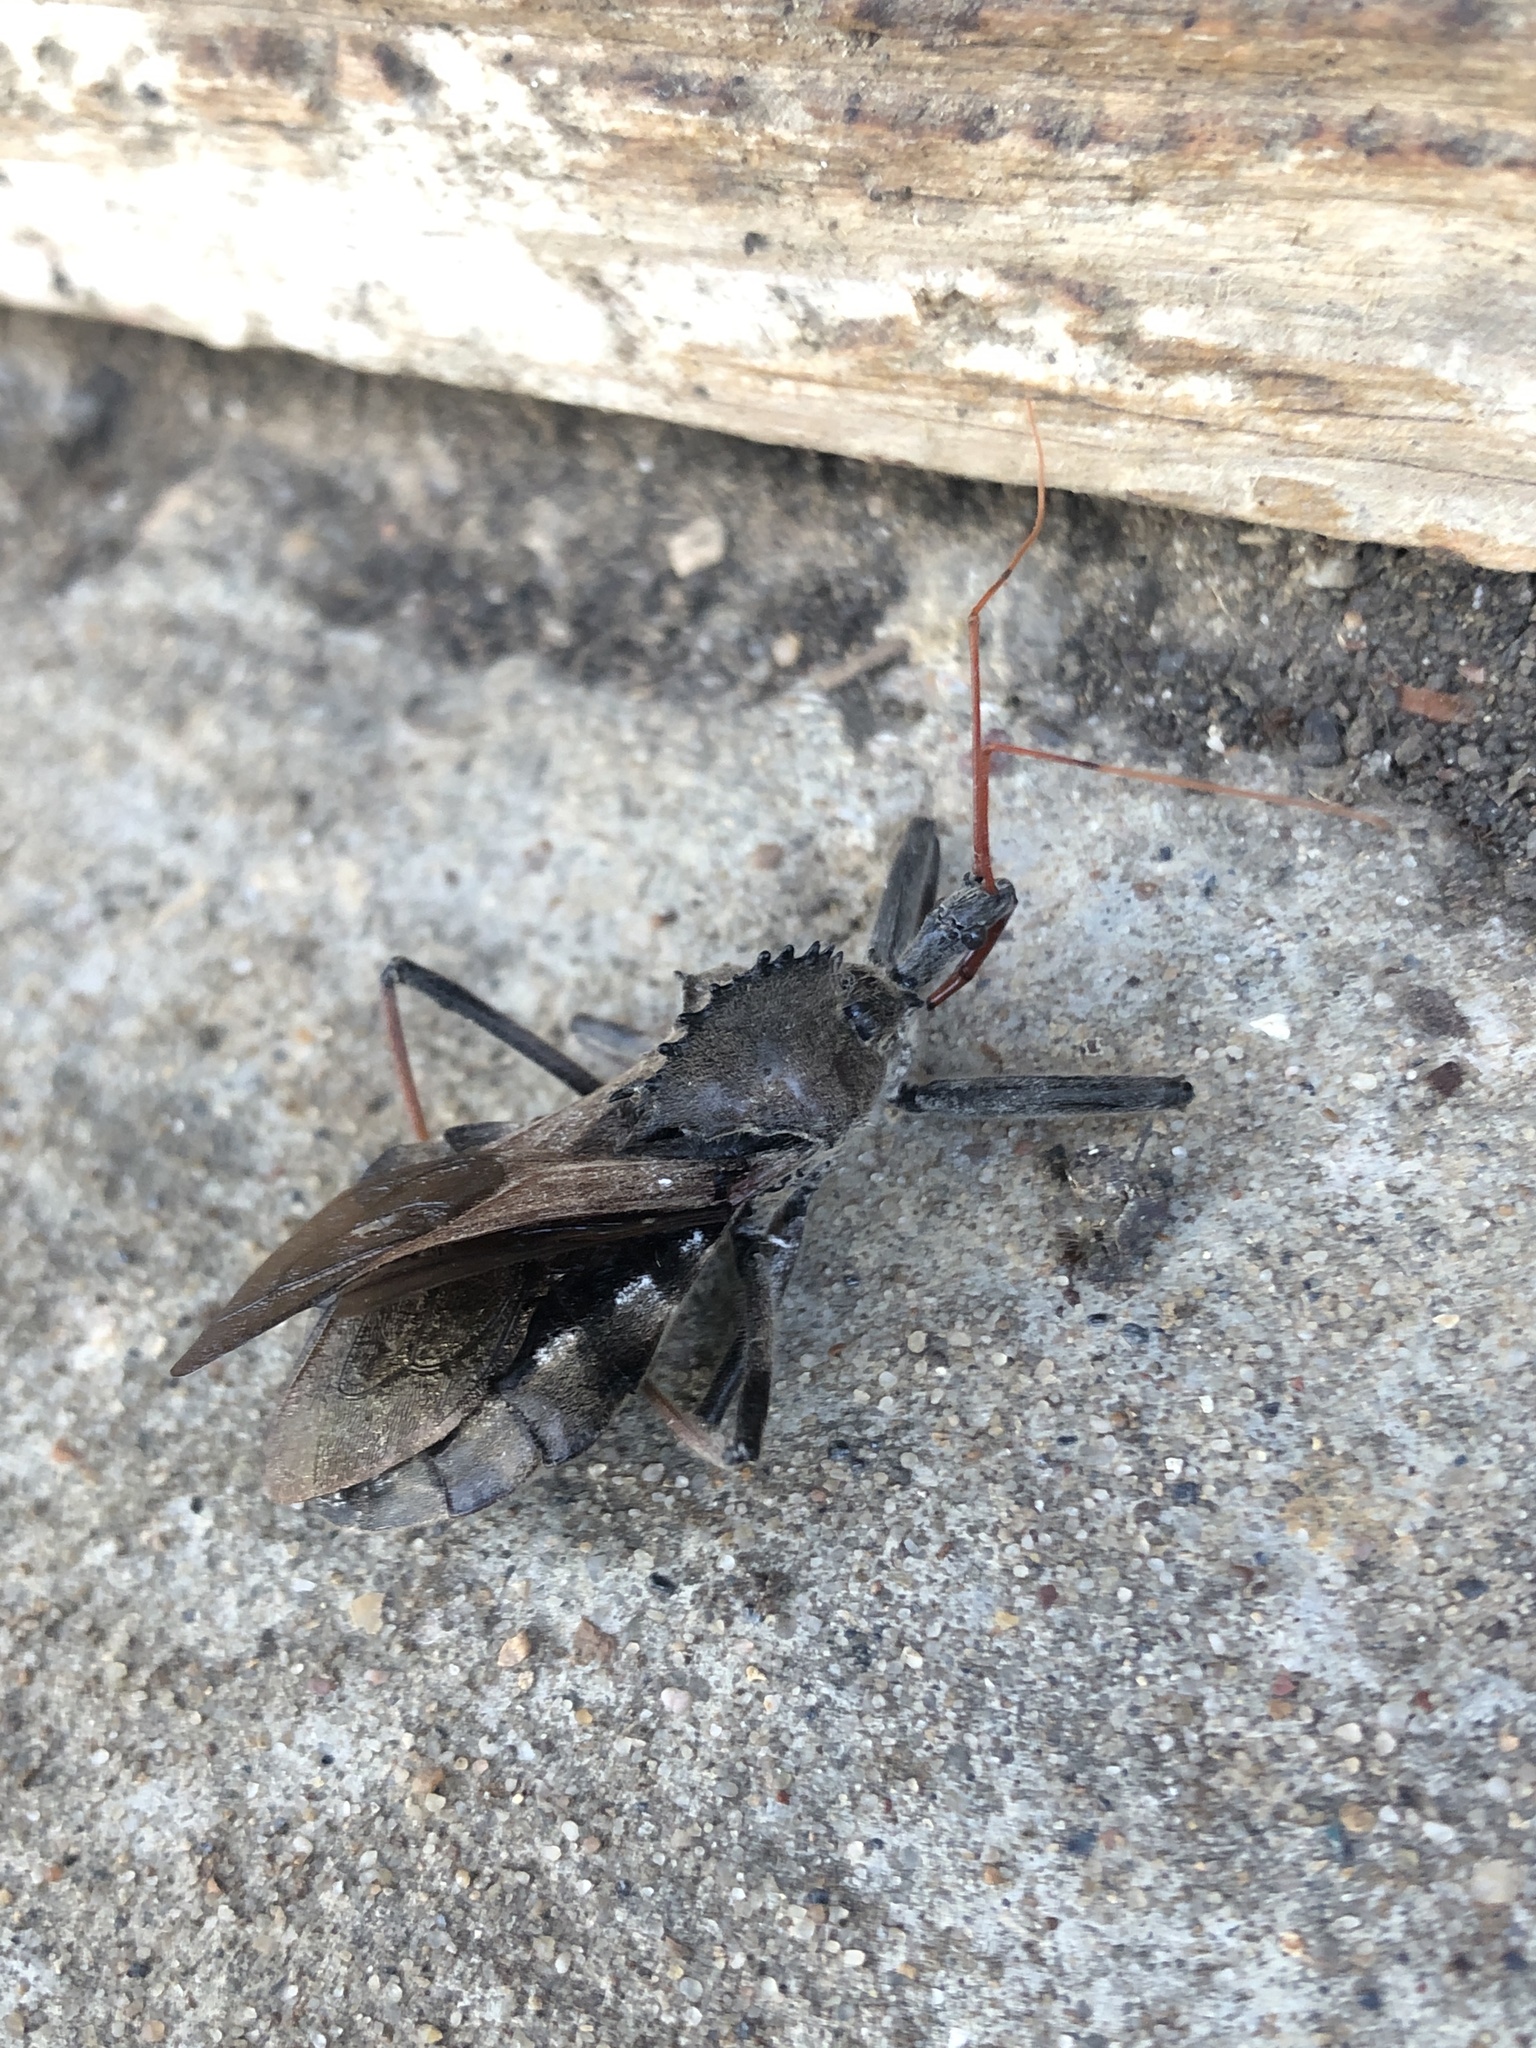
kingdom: Animalia
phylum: Arthropoda
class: Insecta
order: Hemiptera
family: Reduviidae
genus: Arilus
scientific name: Arilus cristatus
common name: North american wheel bug
